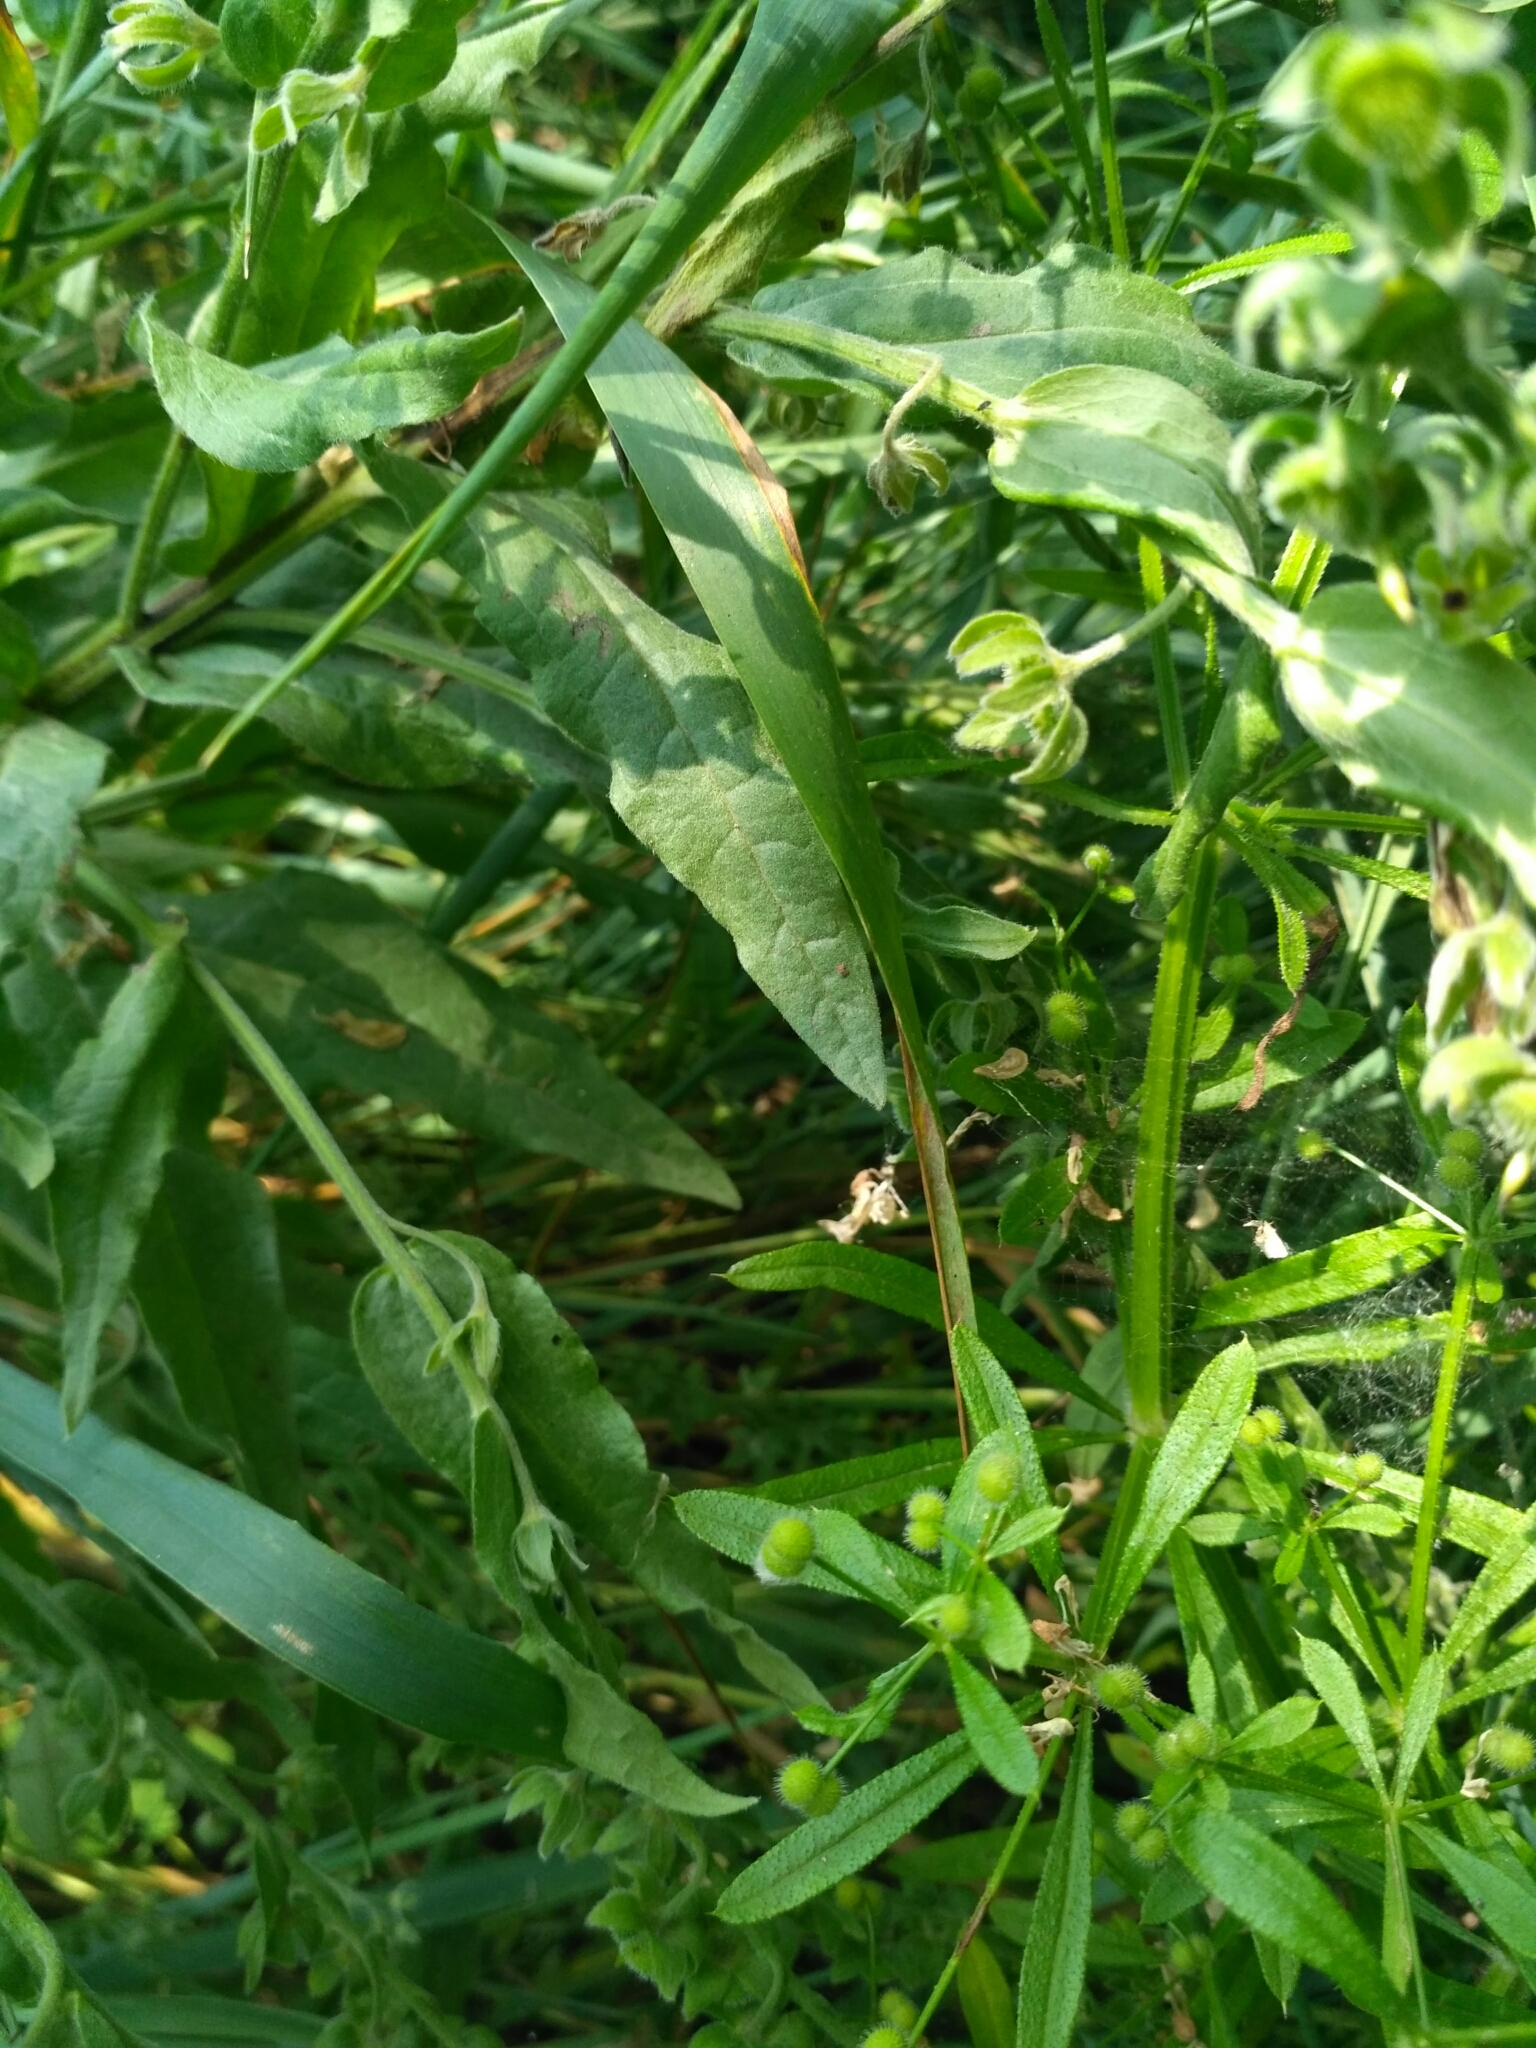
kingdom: Plantae
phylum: Tracheophyta
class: Magnoliopsida
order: Boraginales
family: Boraginaceae
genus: Cynoglossum
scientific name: Cynoglossum officinale
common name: Hound's-tongue
